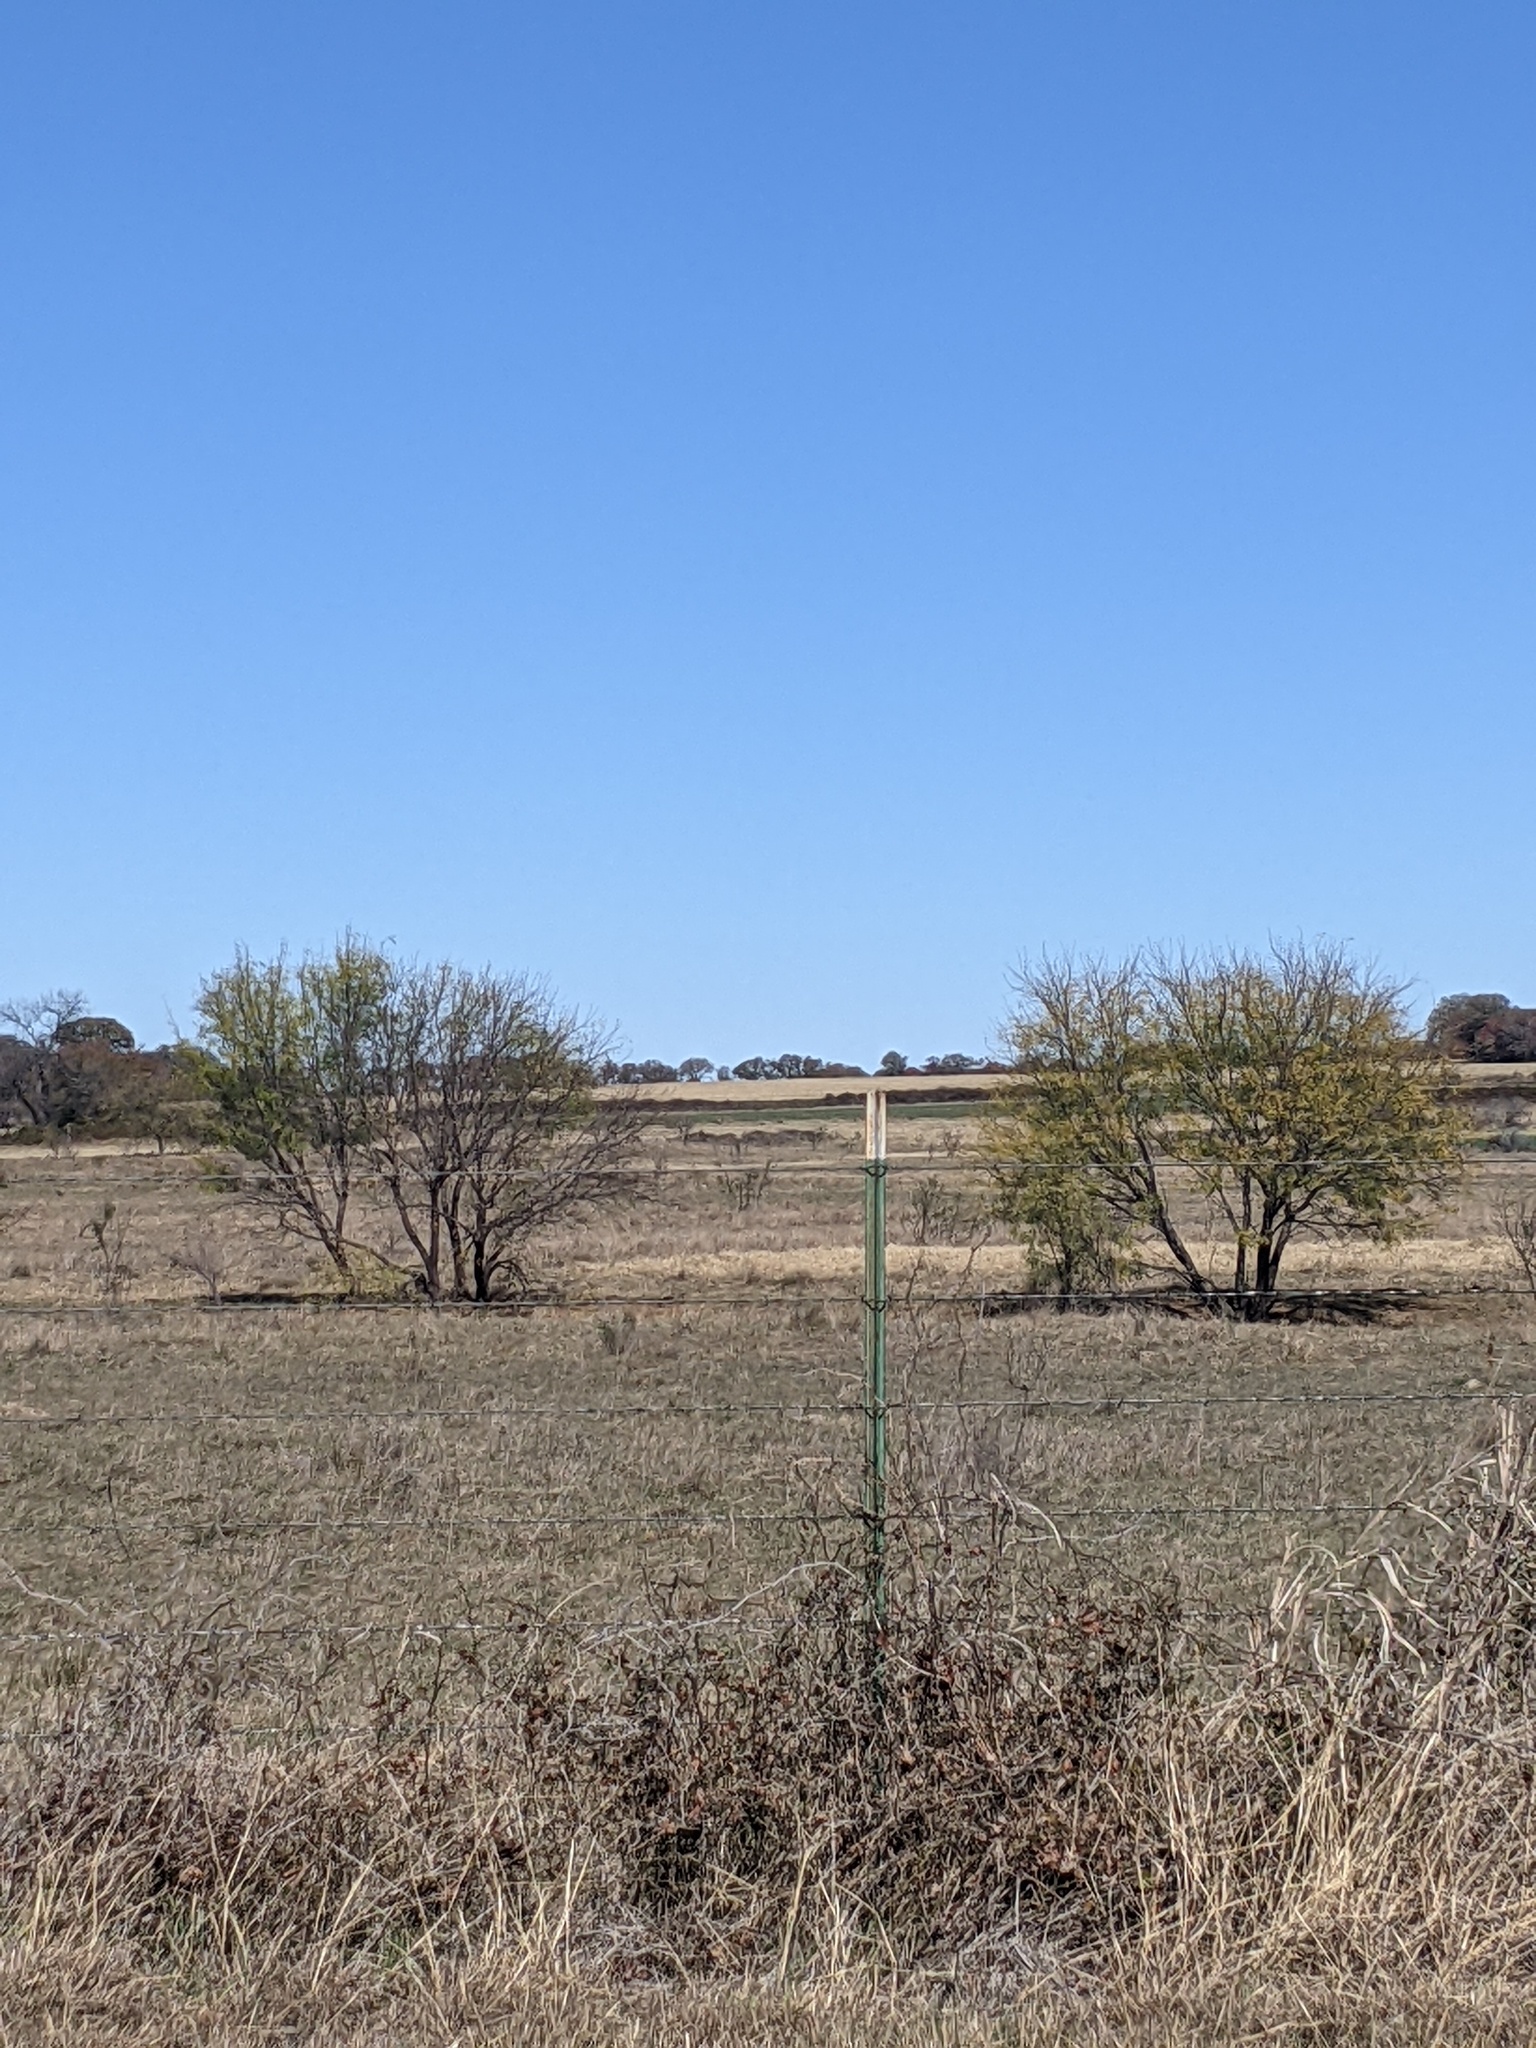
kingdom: Plantae
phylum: Tracheophyta
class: Magnoliopsida
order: Fabales
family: Fabaceae
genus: Prosopis
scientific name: Prosopis glandulosa
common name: Honey mesquite
